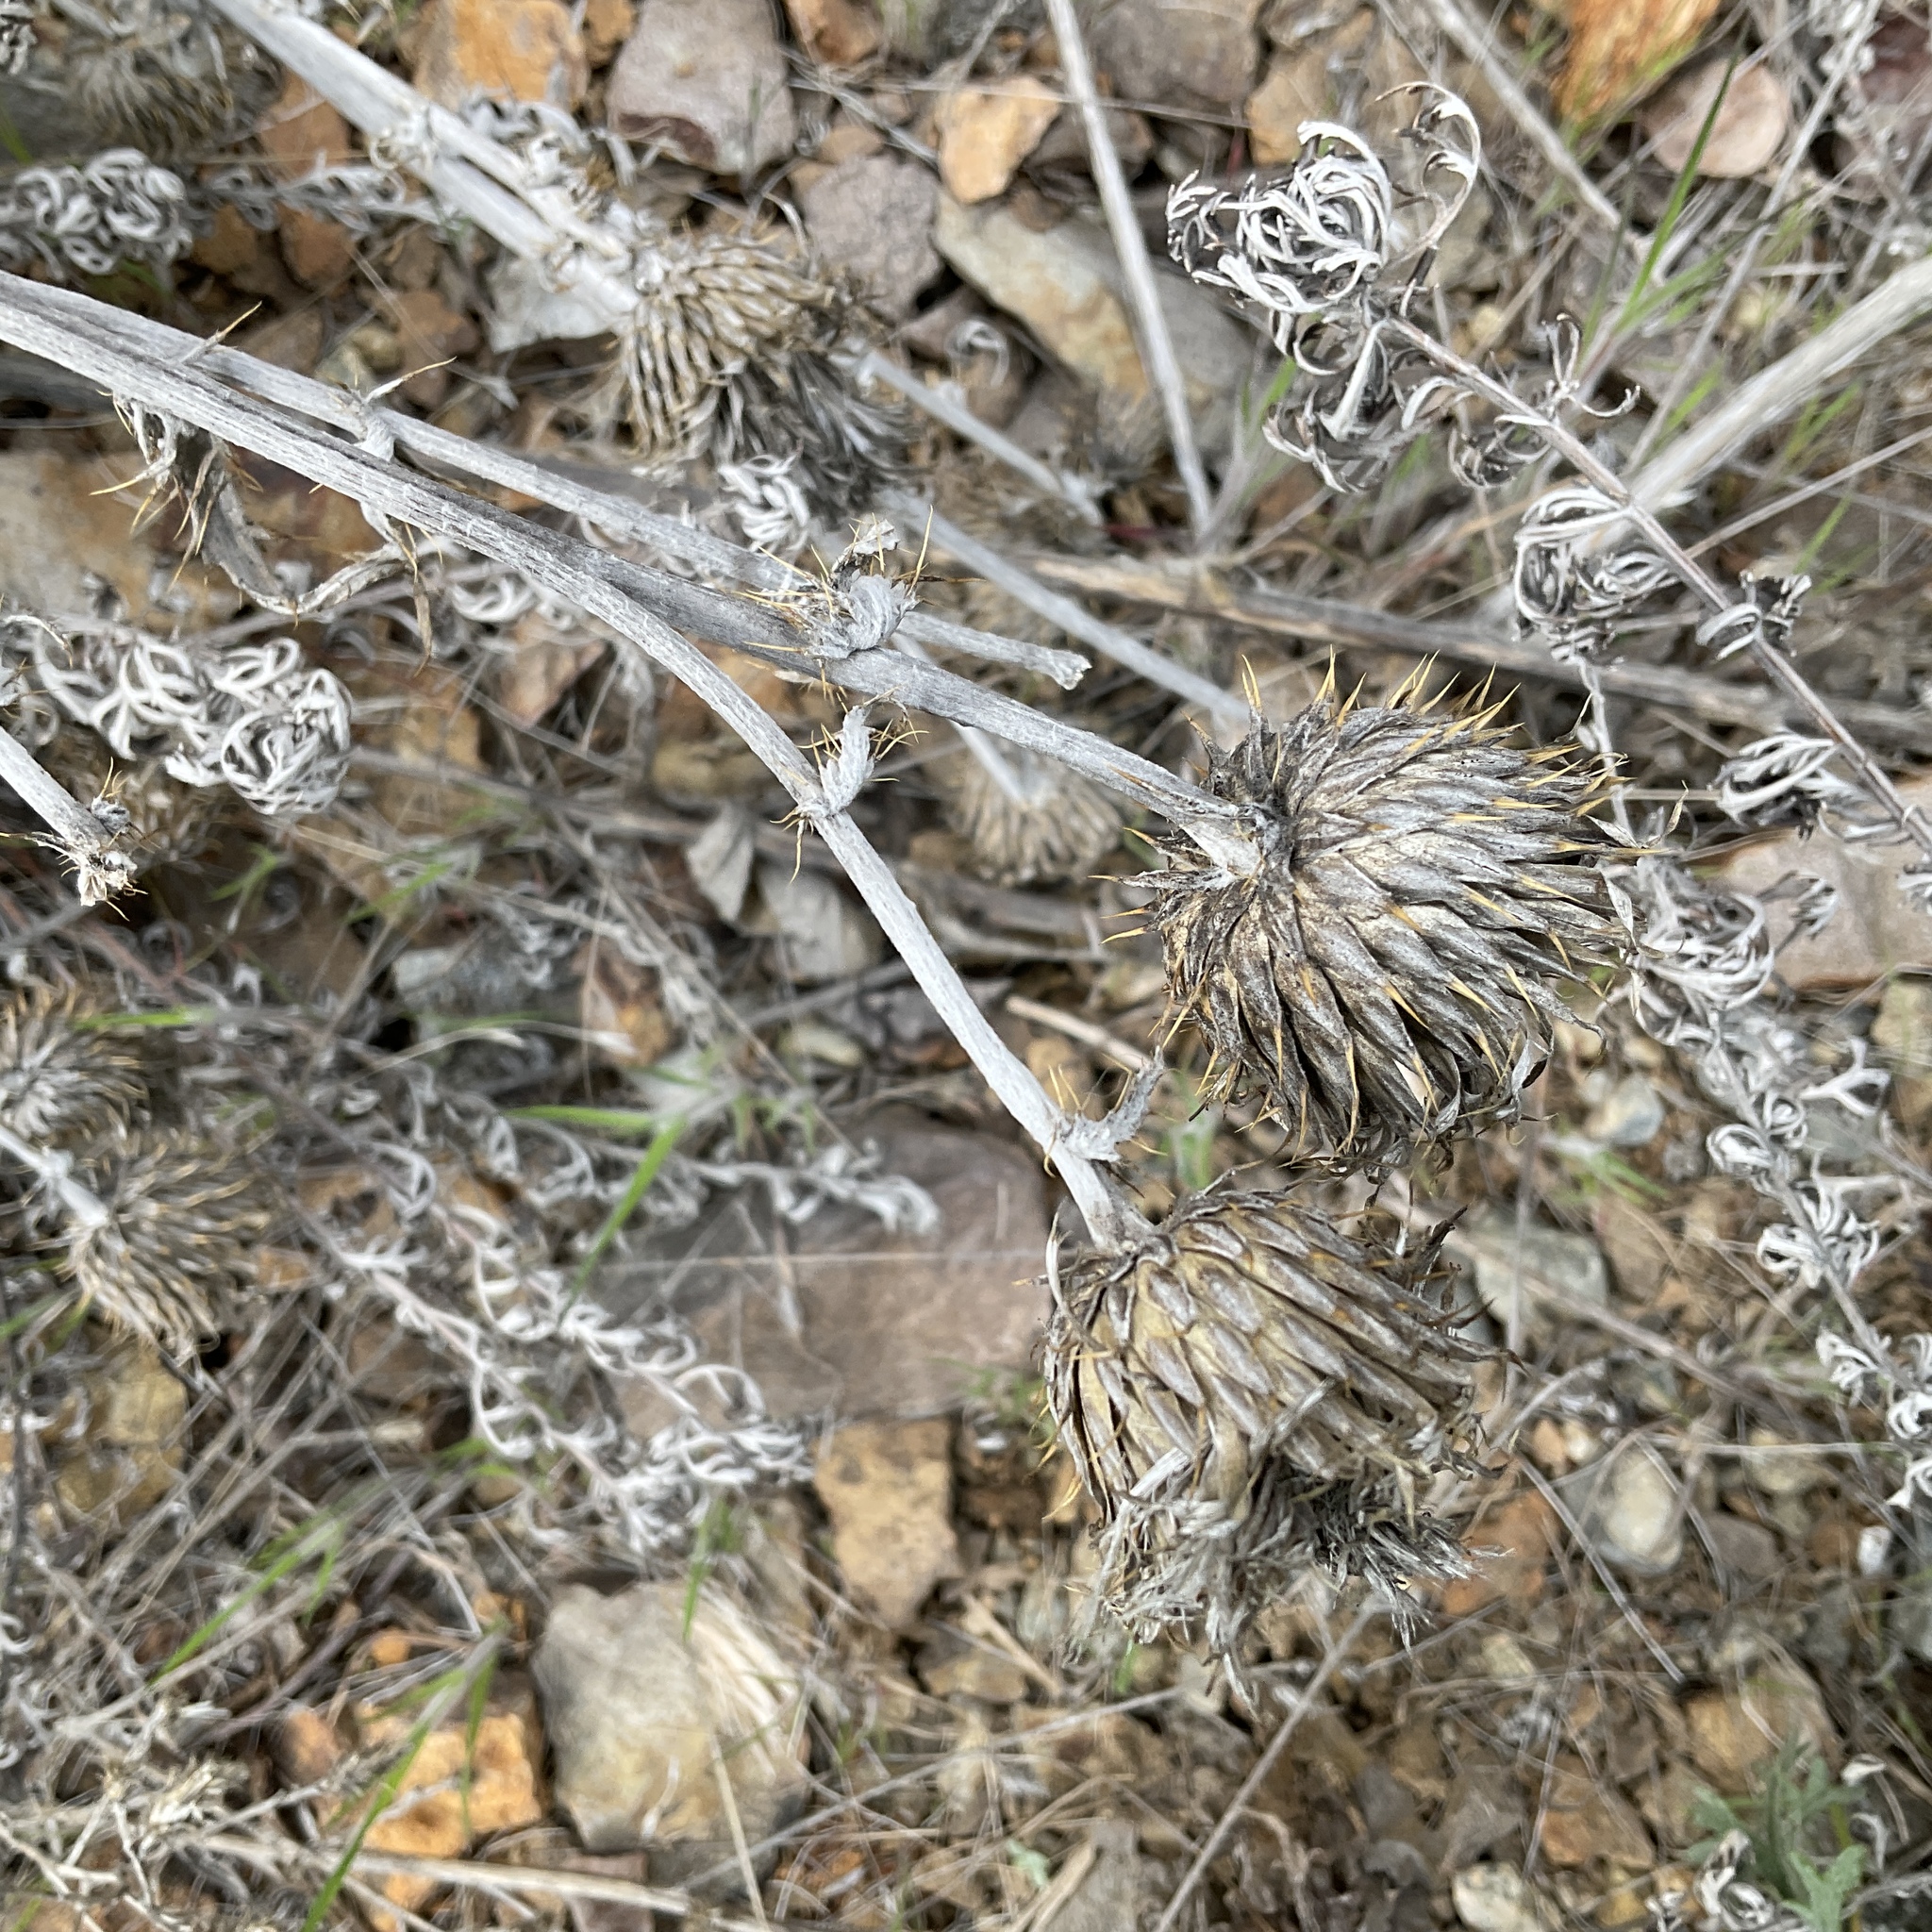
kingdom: Plantae
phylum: Tracheophyta
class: Magnoliopsida
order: Asterales
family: Asteraceae
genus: Cirsium
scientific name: Cirsium undulatum
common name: Pasture thistle
